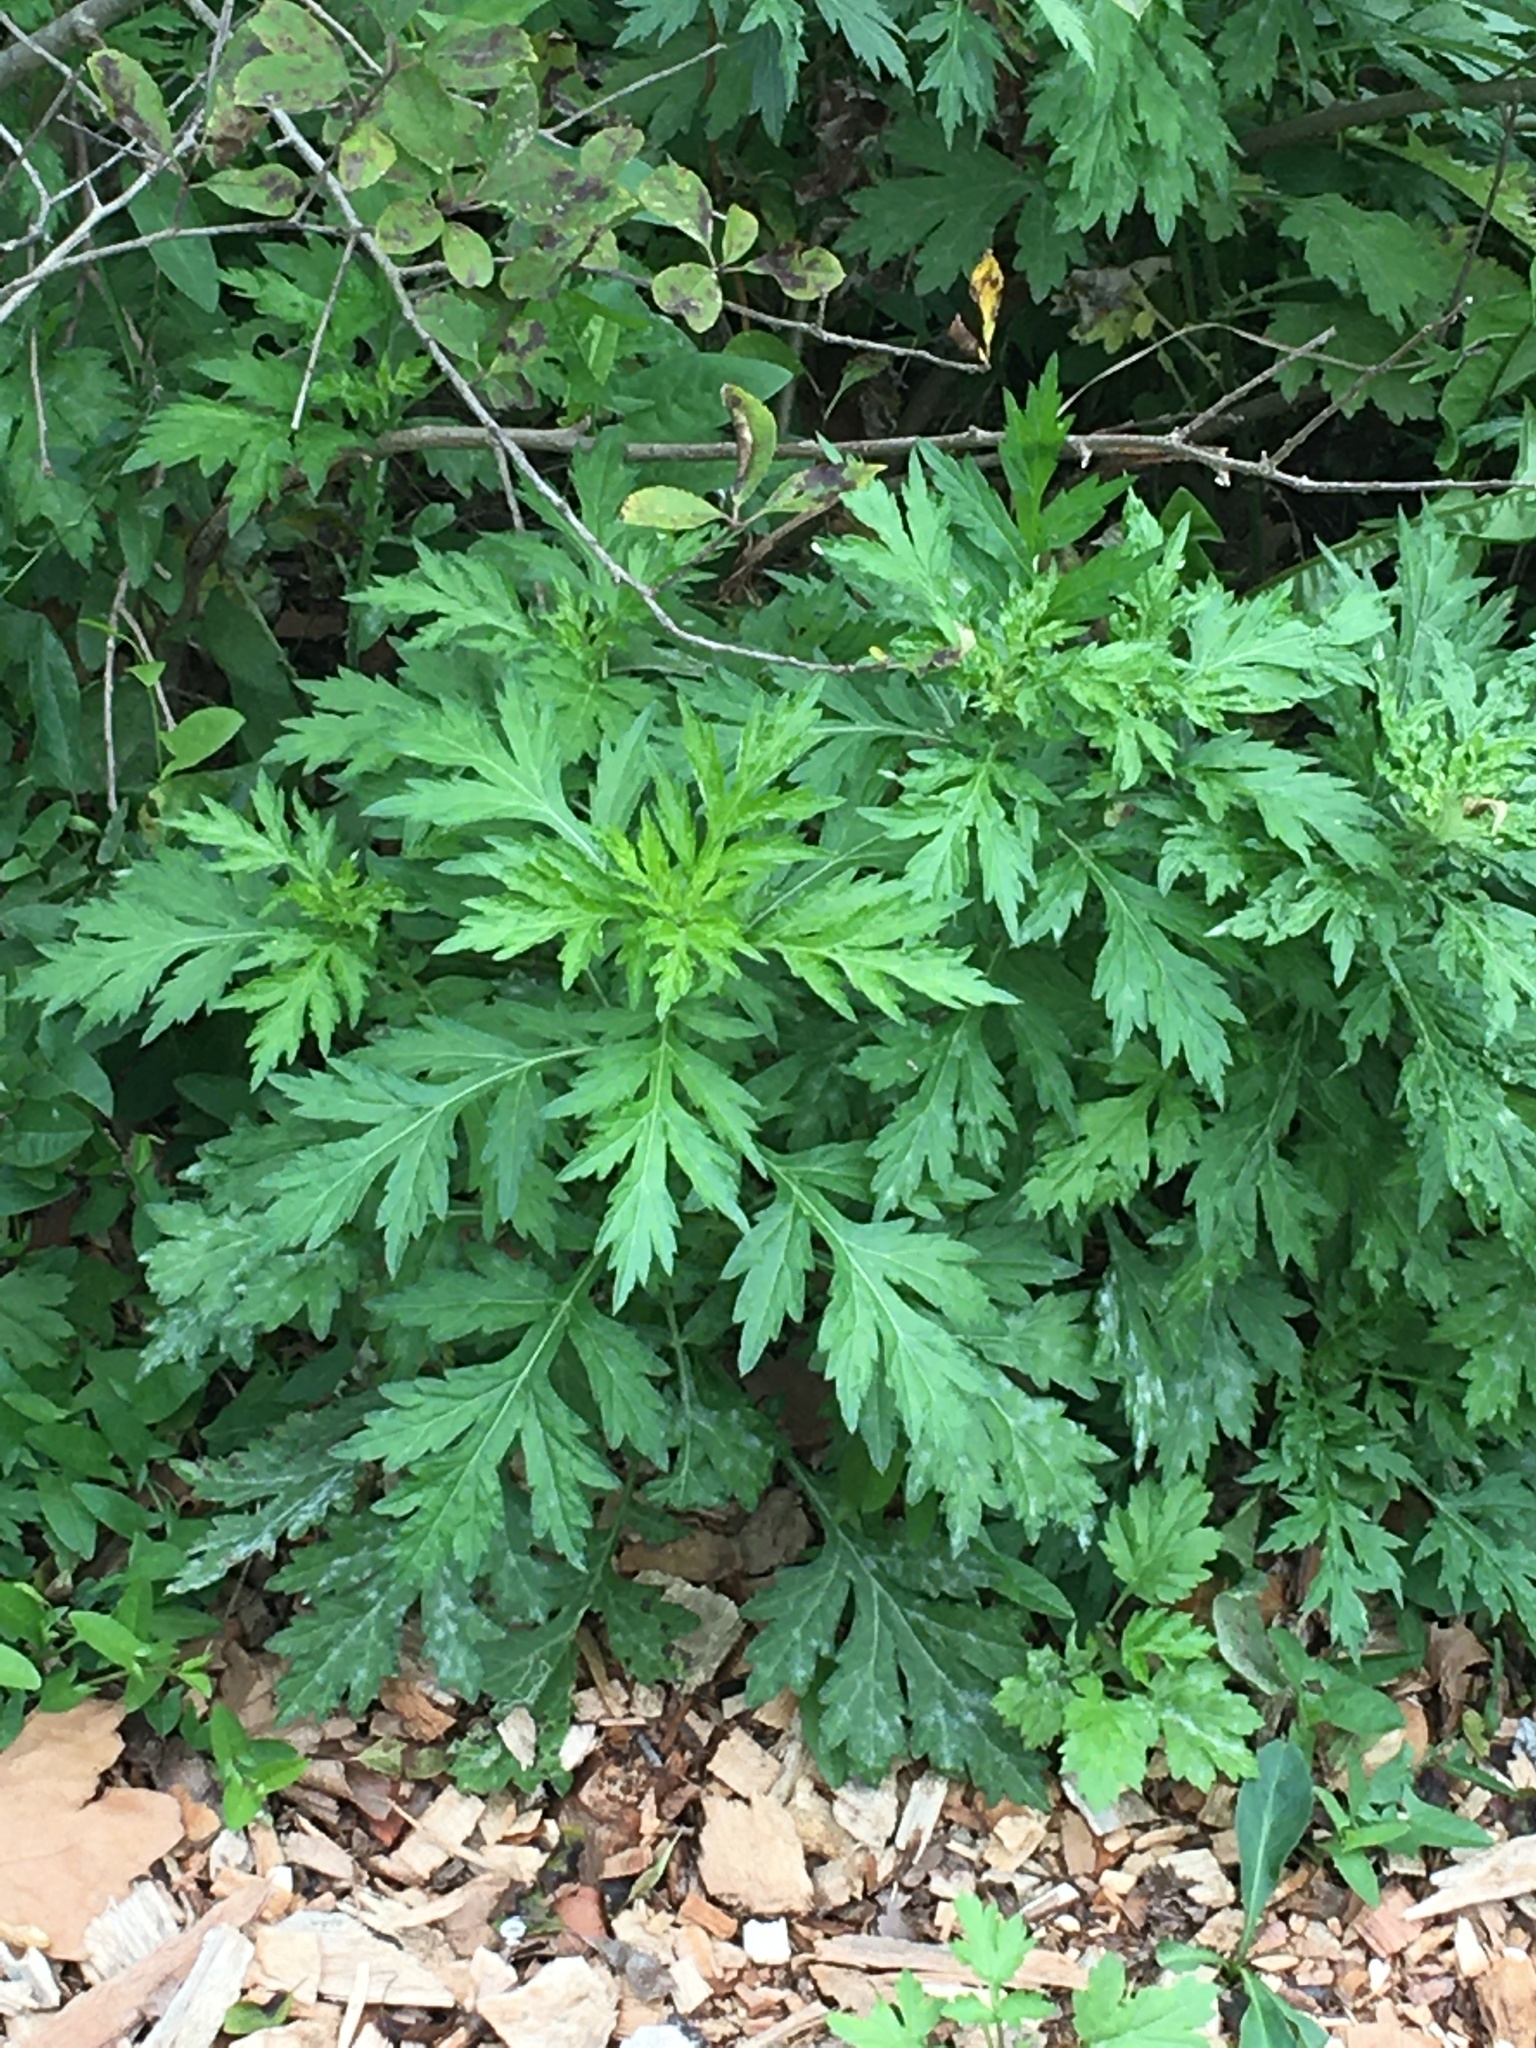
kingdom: Plantae
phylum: Tracheophyta
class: Magnoliopsida
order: Asterales
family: Asteraceae
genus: Artemisia
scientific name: Artemisia vulgaris
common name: Mugwort
